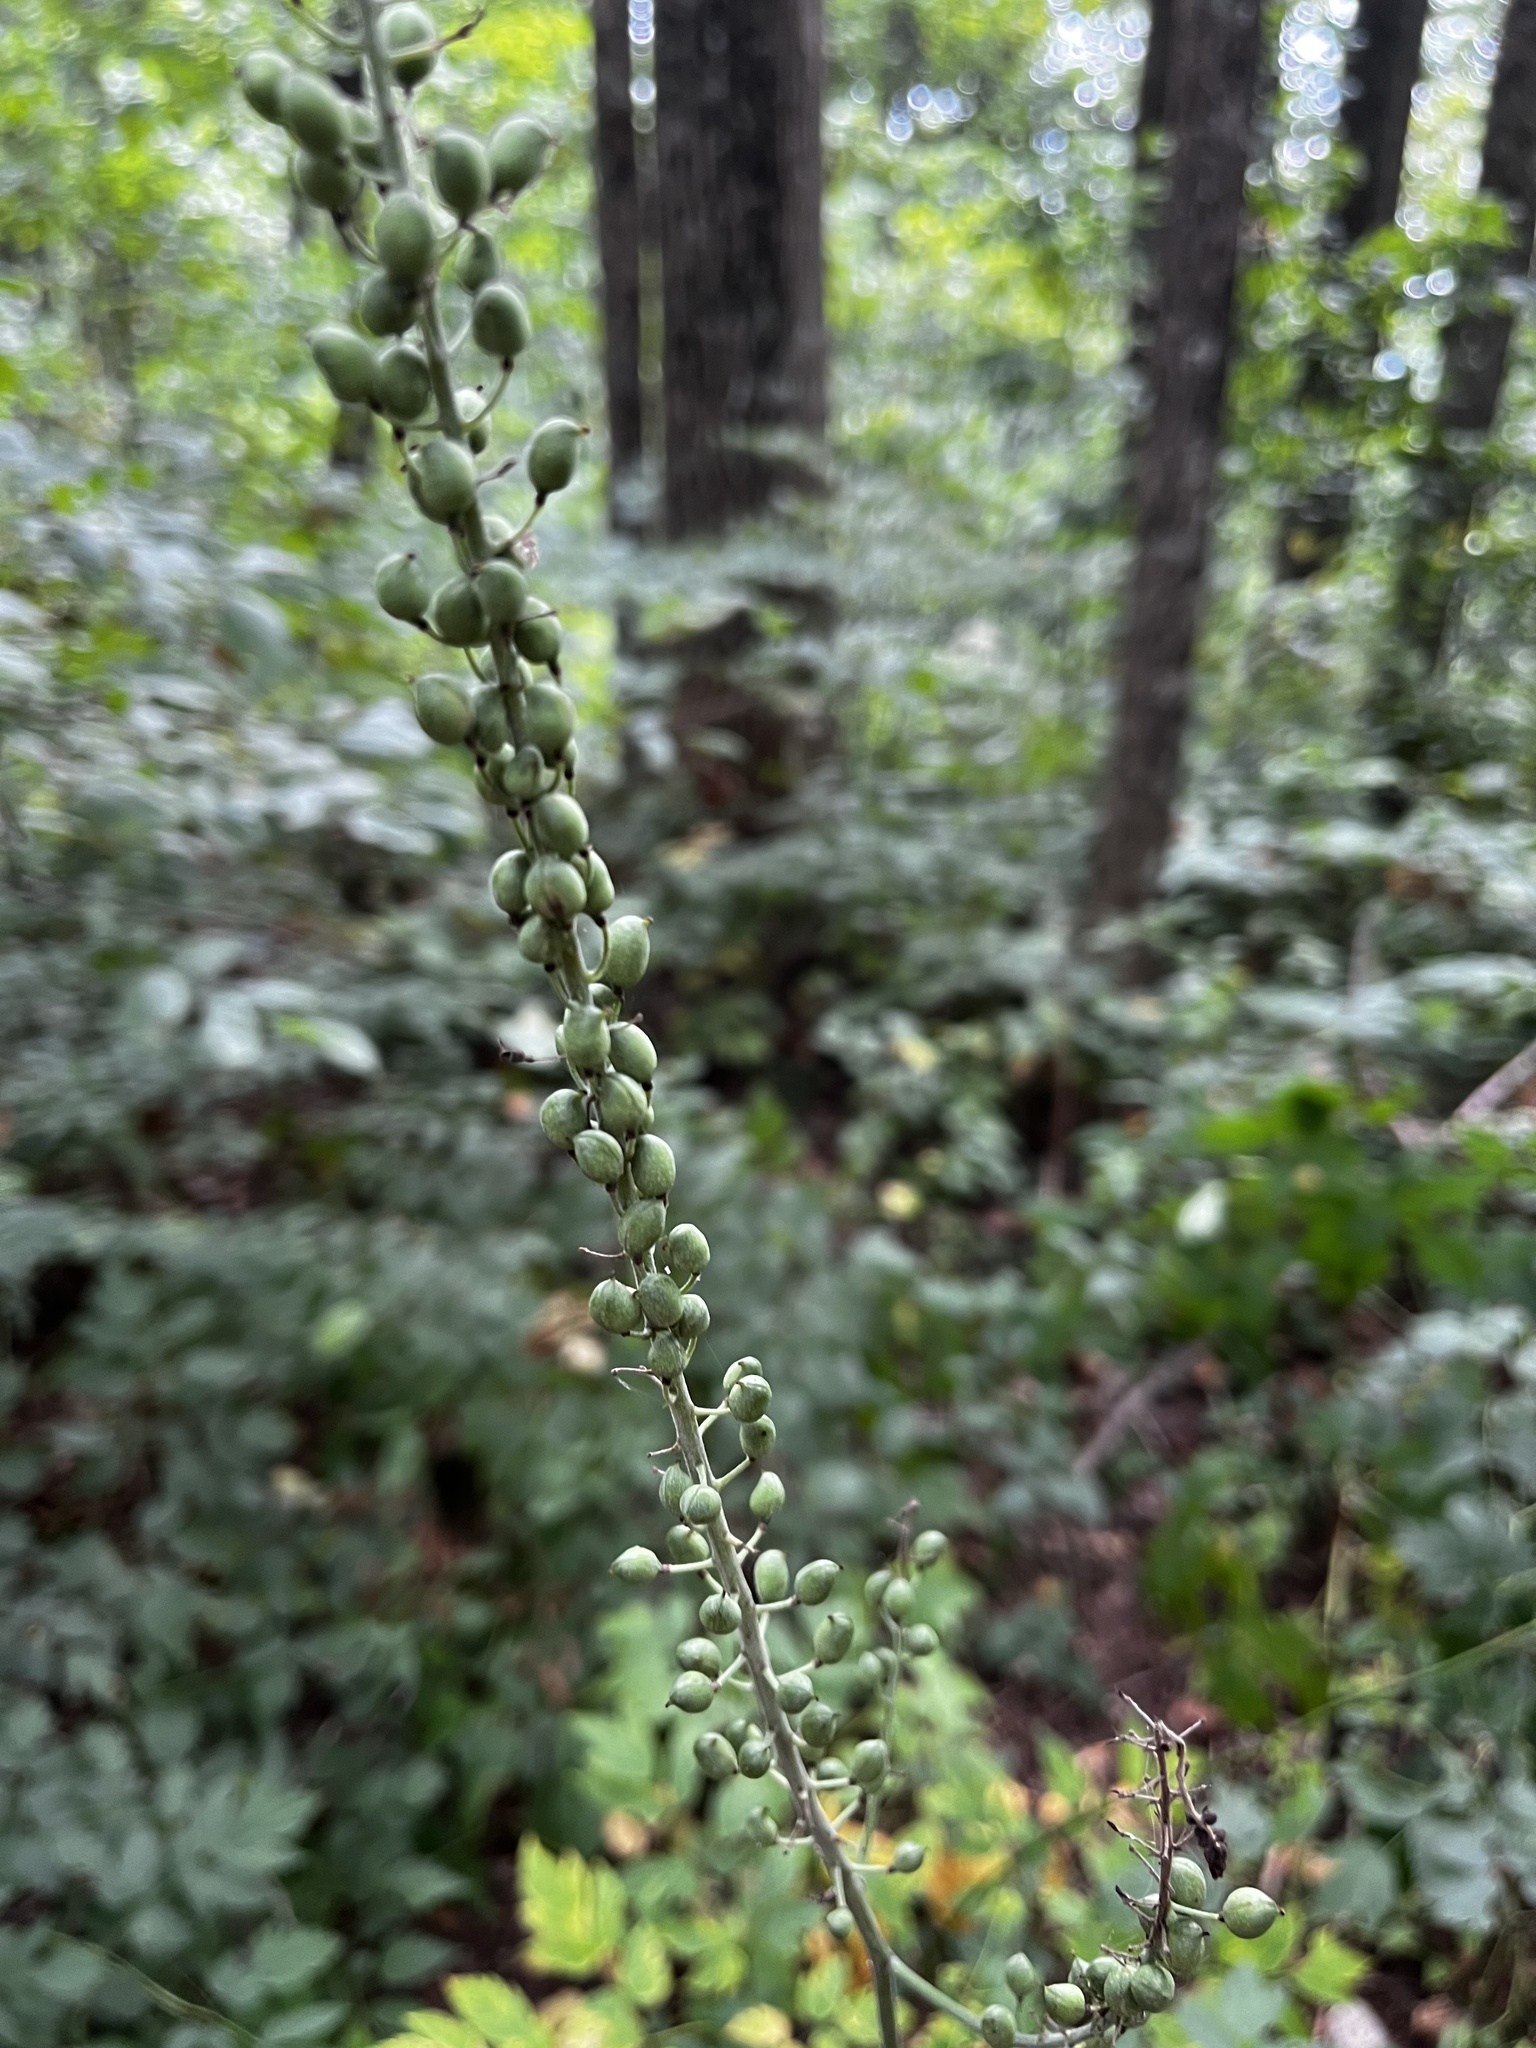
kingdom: Plantae
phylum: Tracheophyta
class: Magnoliopsida
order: Ranunculales
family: Ranunculaceae
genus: Actaea
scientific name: Actaea racemosa
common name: Black cohosh
